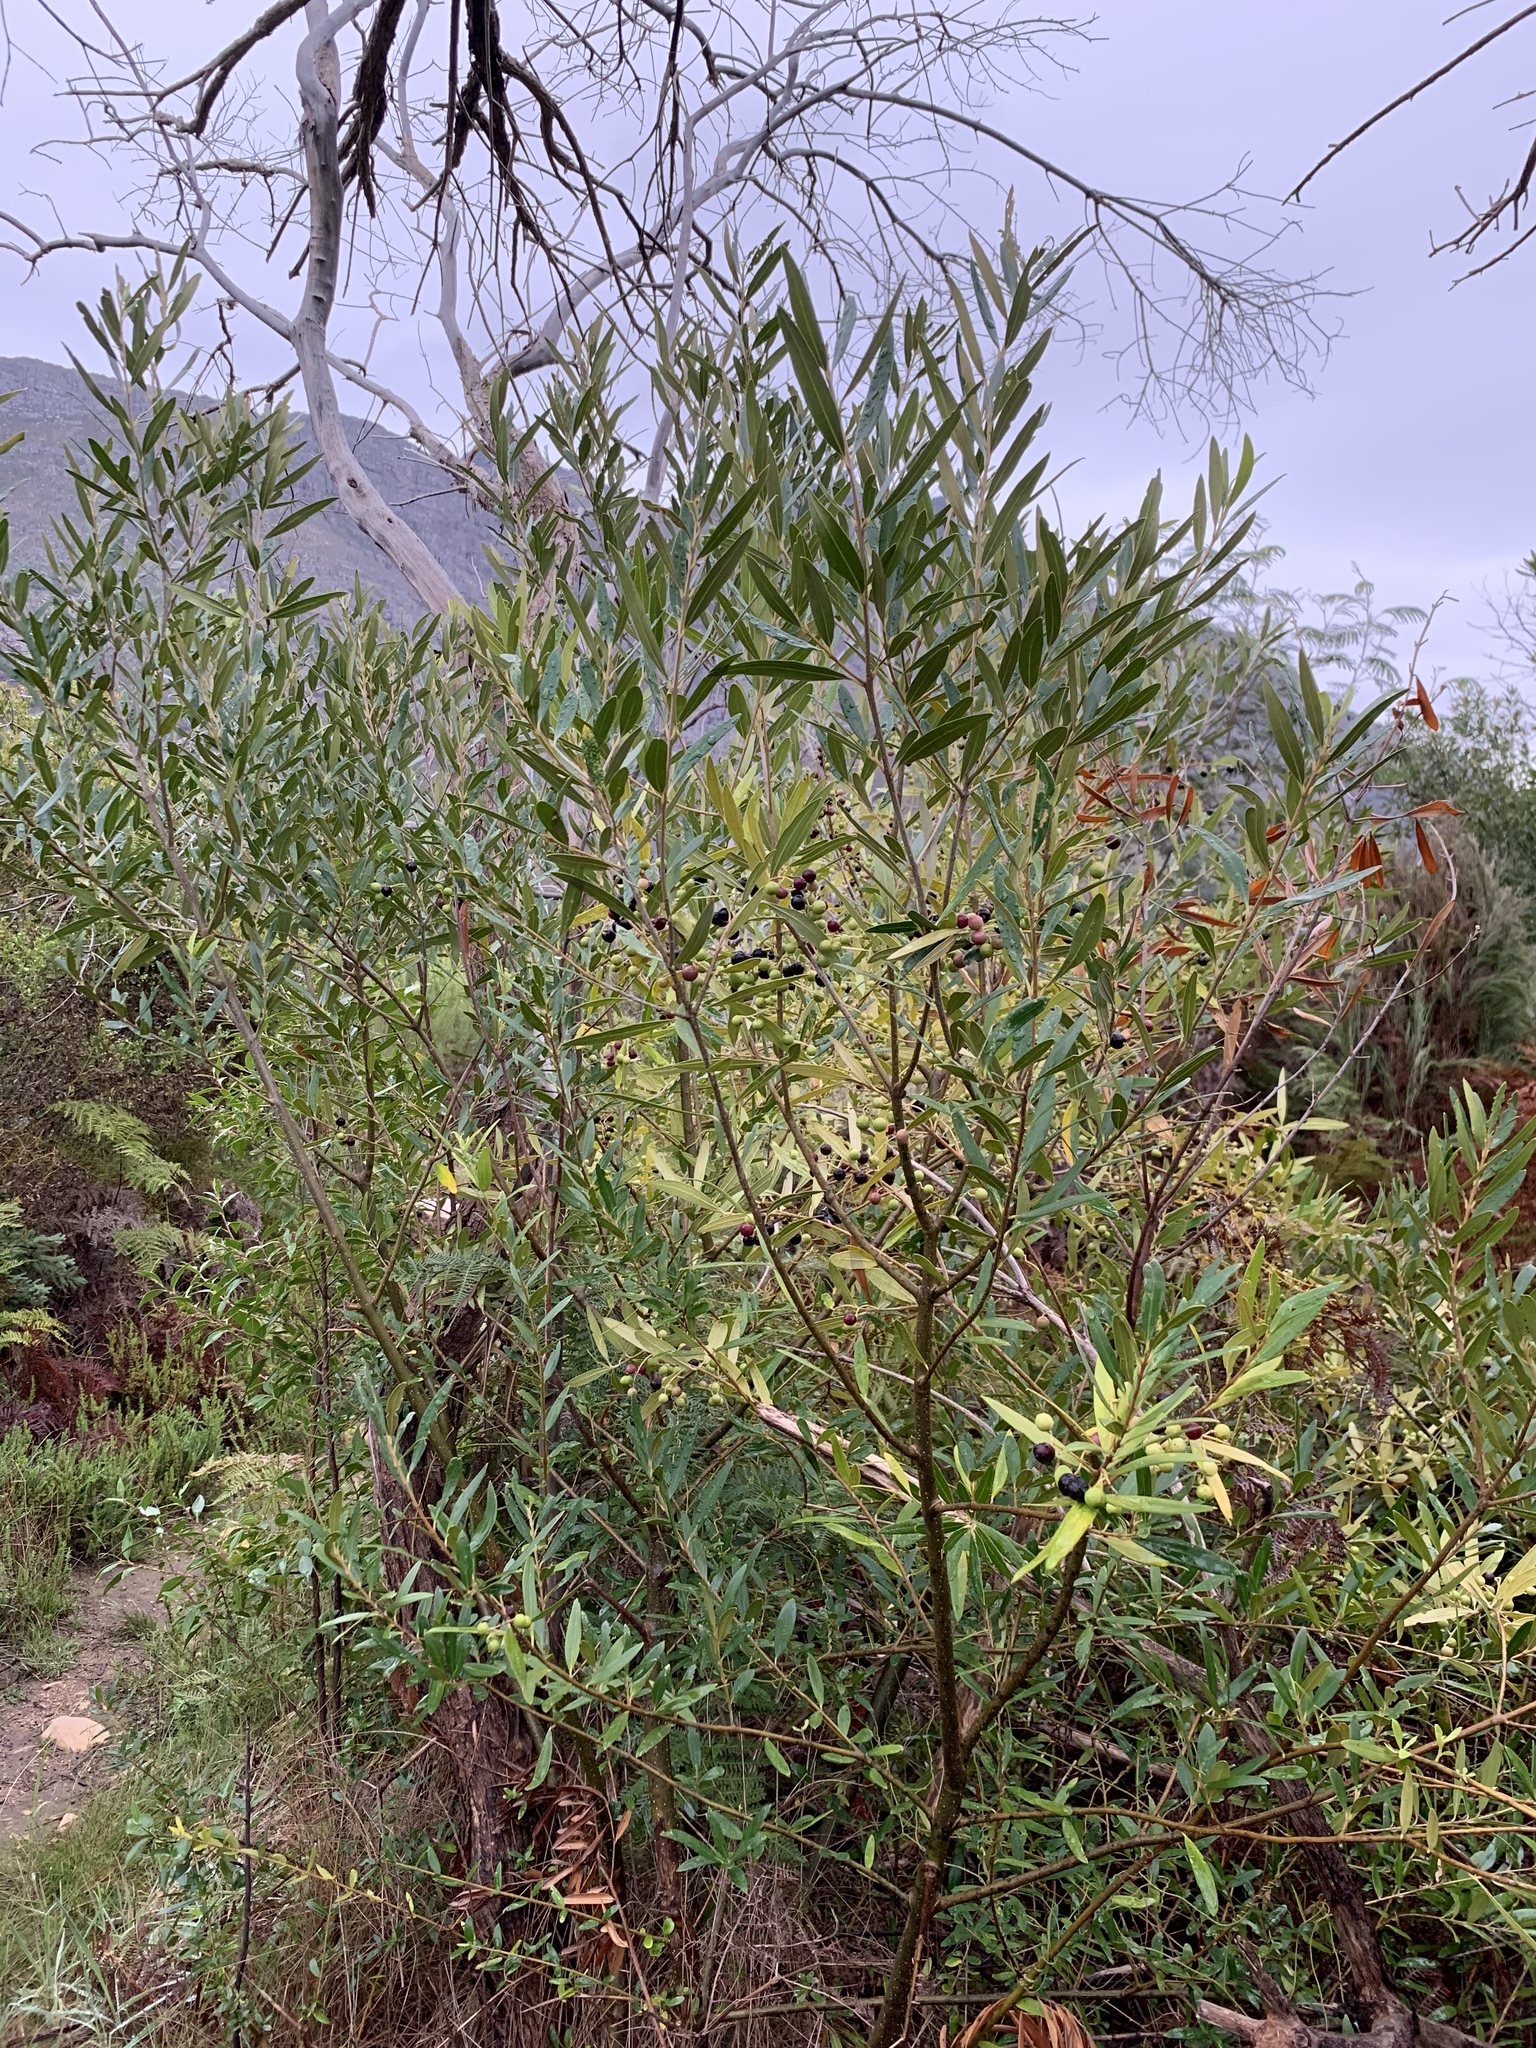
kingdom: Plantae
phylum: Tracheophyta
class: Magnoliopsida
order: Lamiales
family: Oleaceae
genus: Olea
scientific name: Olea europaea
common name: Olive
